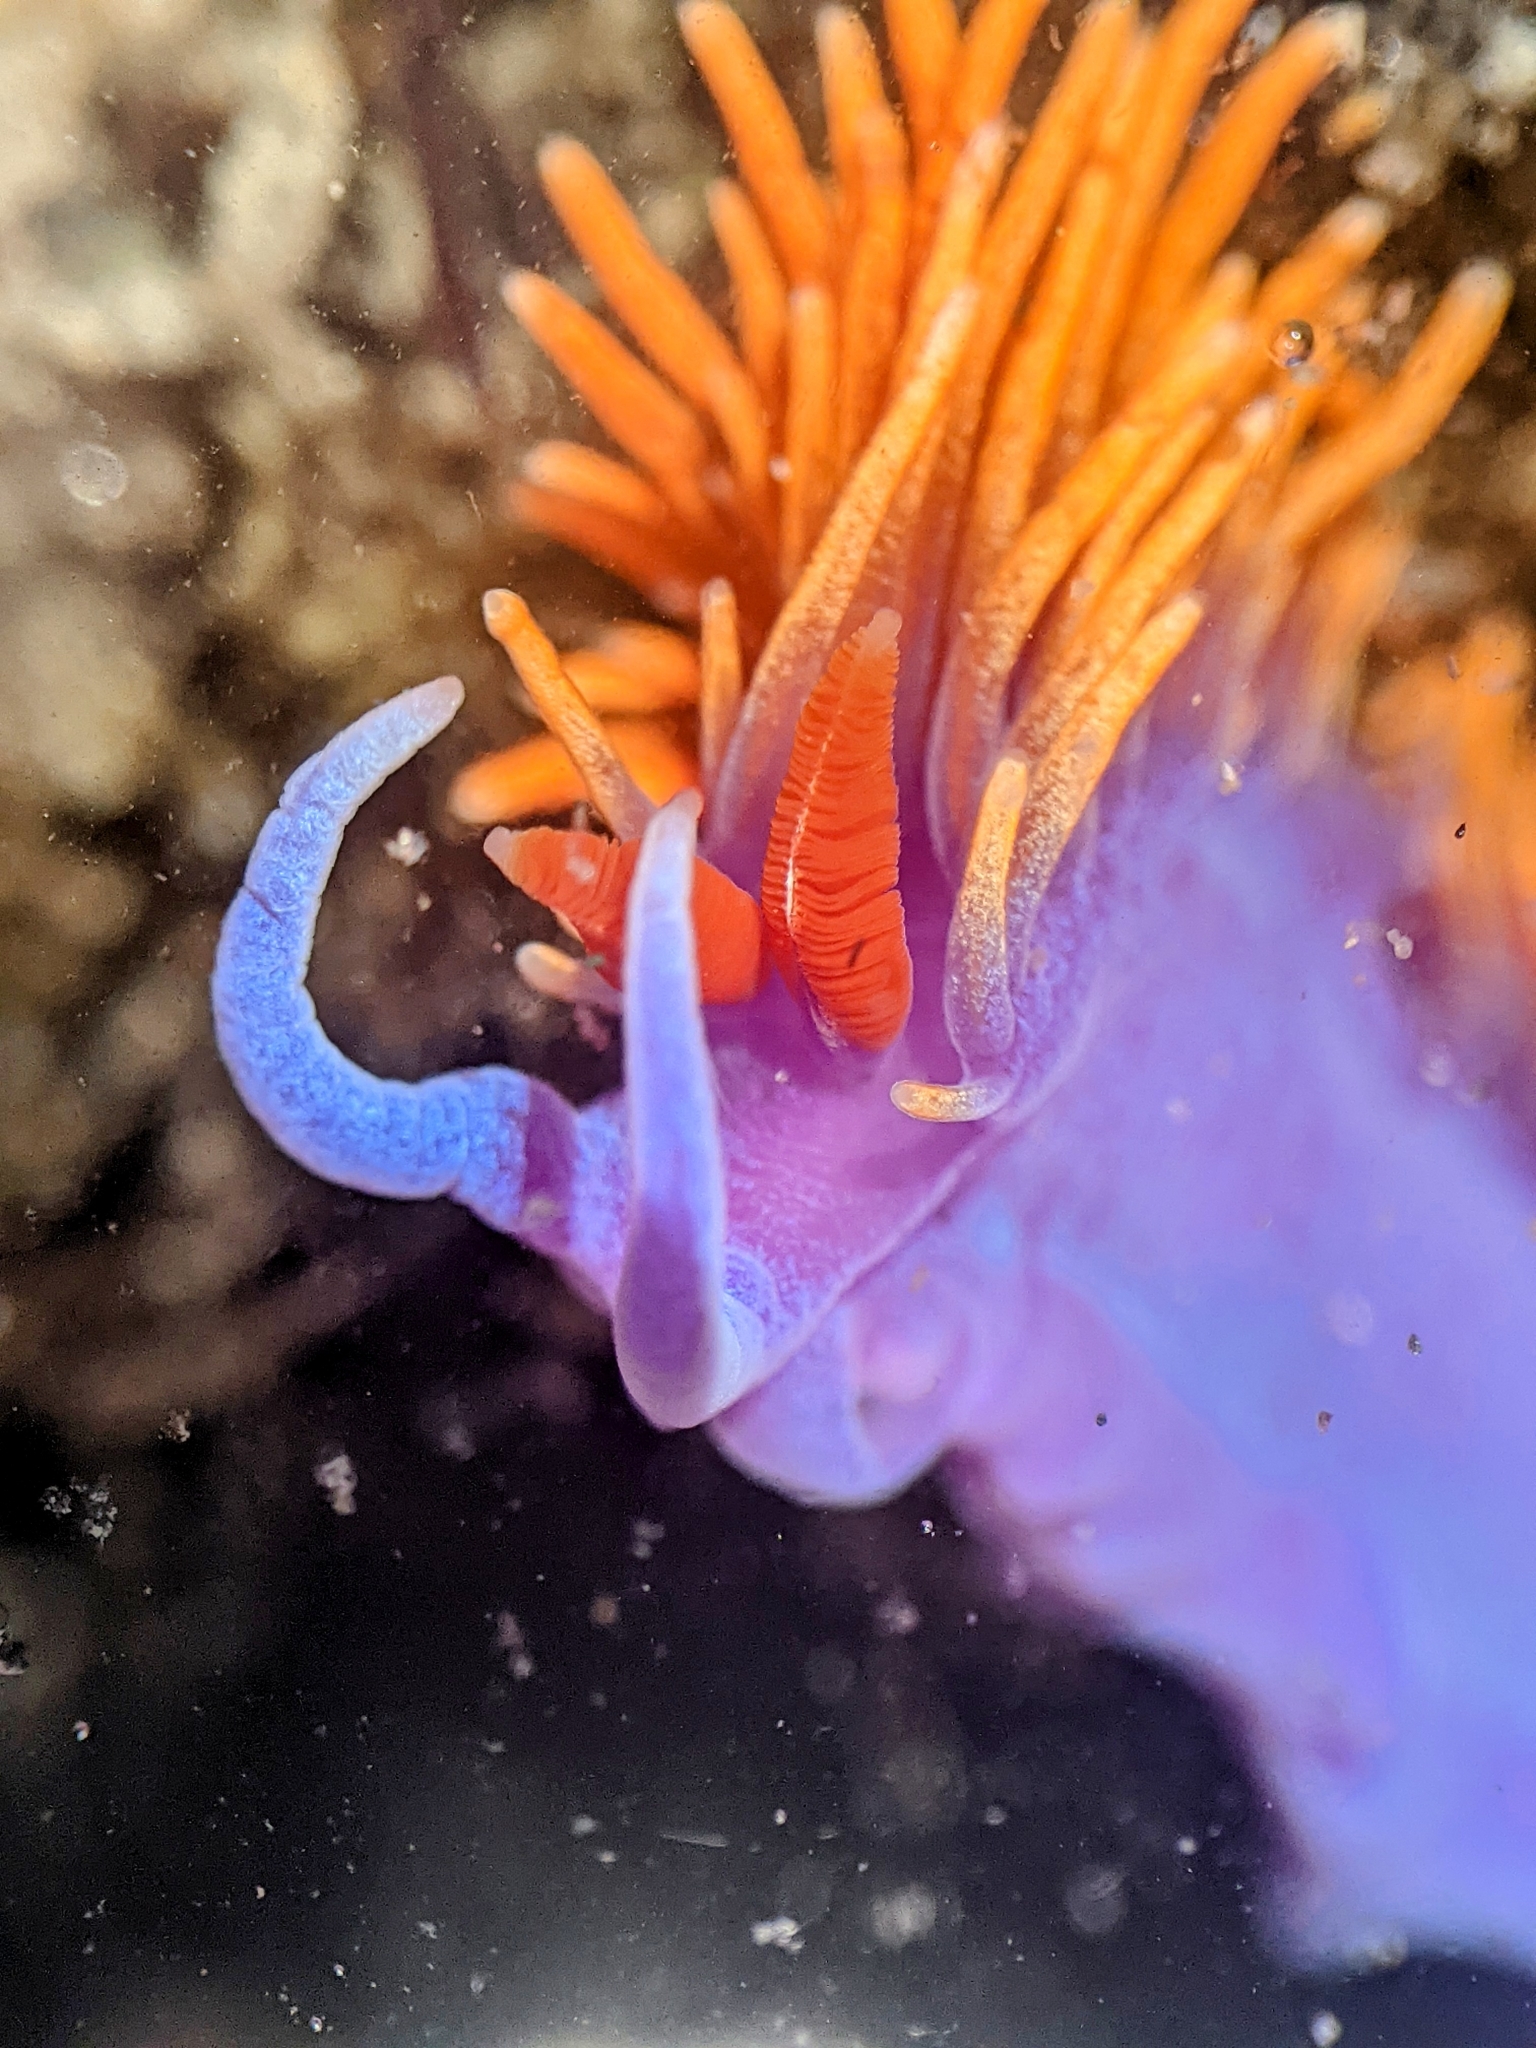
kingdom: Animalia
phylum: Mollusca
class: Gastropoda
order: Nudibranchia
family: Flabellinopsidae
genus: Flabellinopsis
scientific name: Flabellinopsis iodinea
